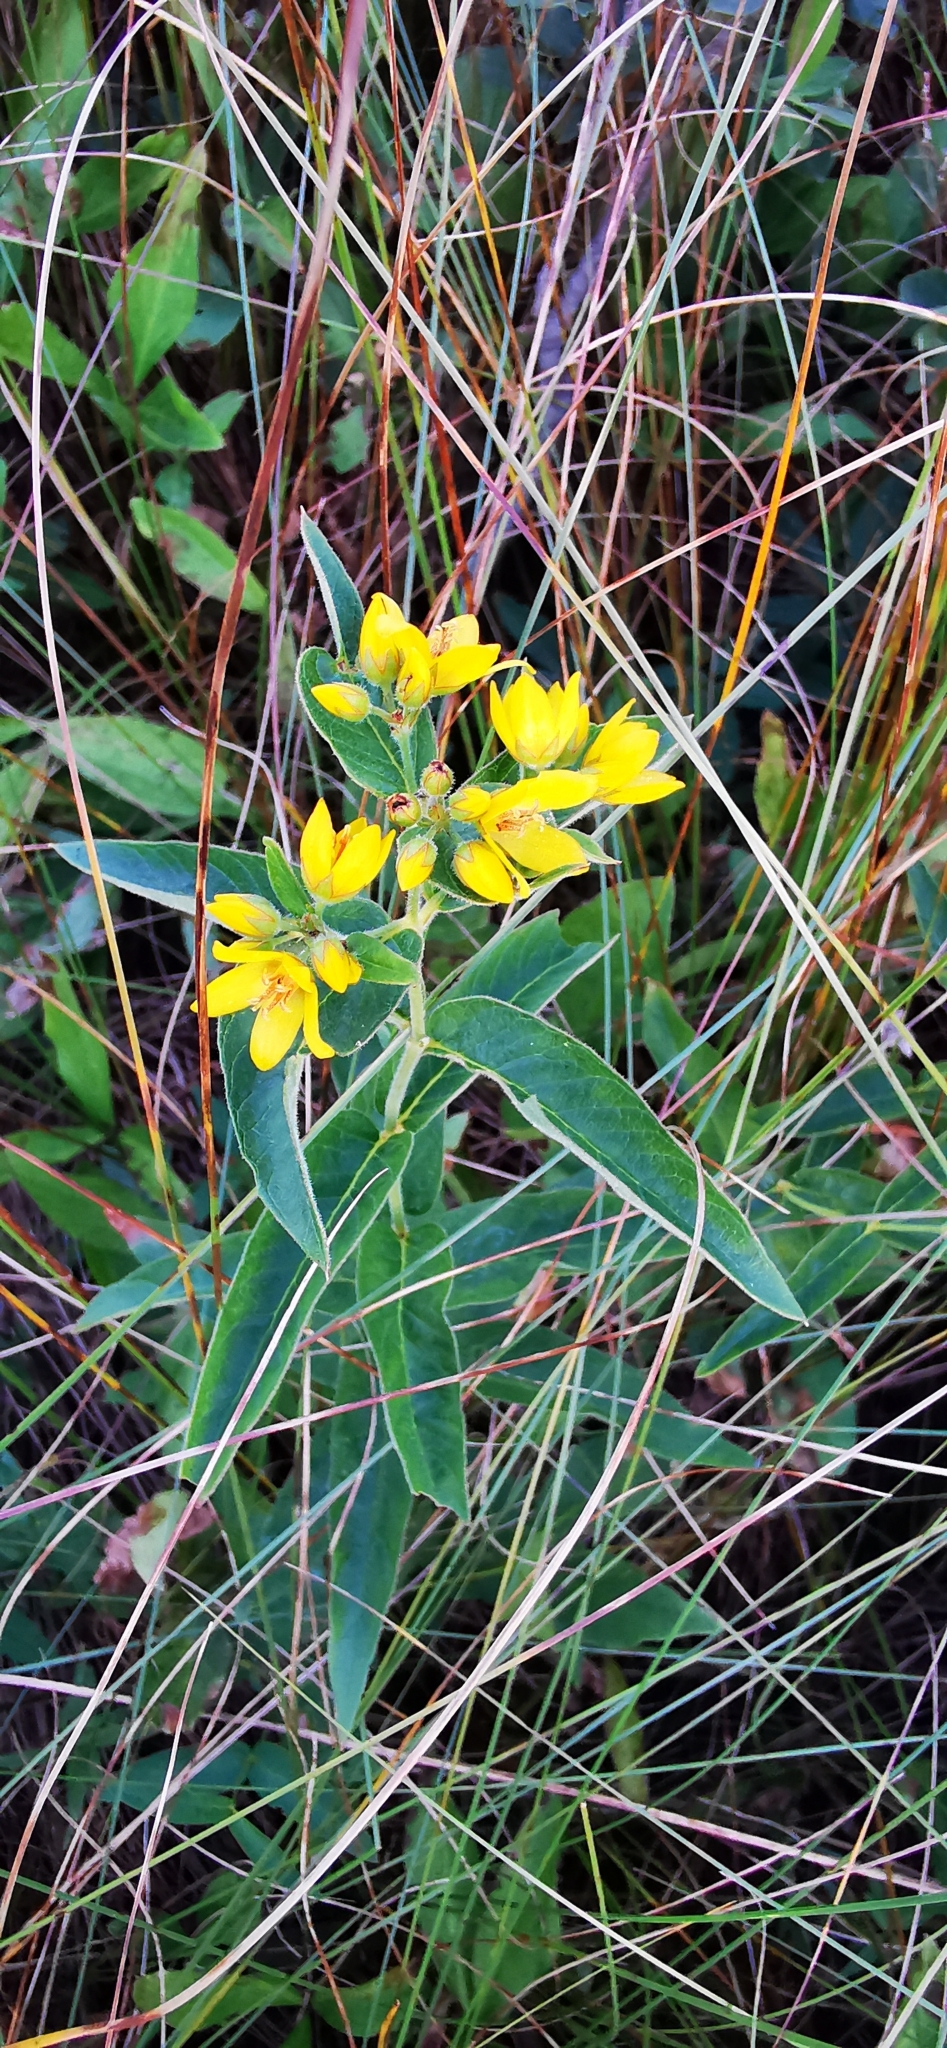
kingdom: Plantae
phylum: Tracheophyta
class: Magnoliopsida
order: Ericales
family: Primulaceae
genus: Lysimachia
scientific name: Lysimachia vulgaris
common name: Yellow loosestrife
